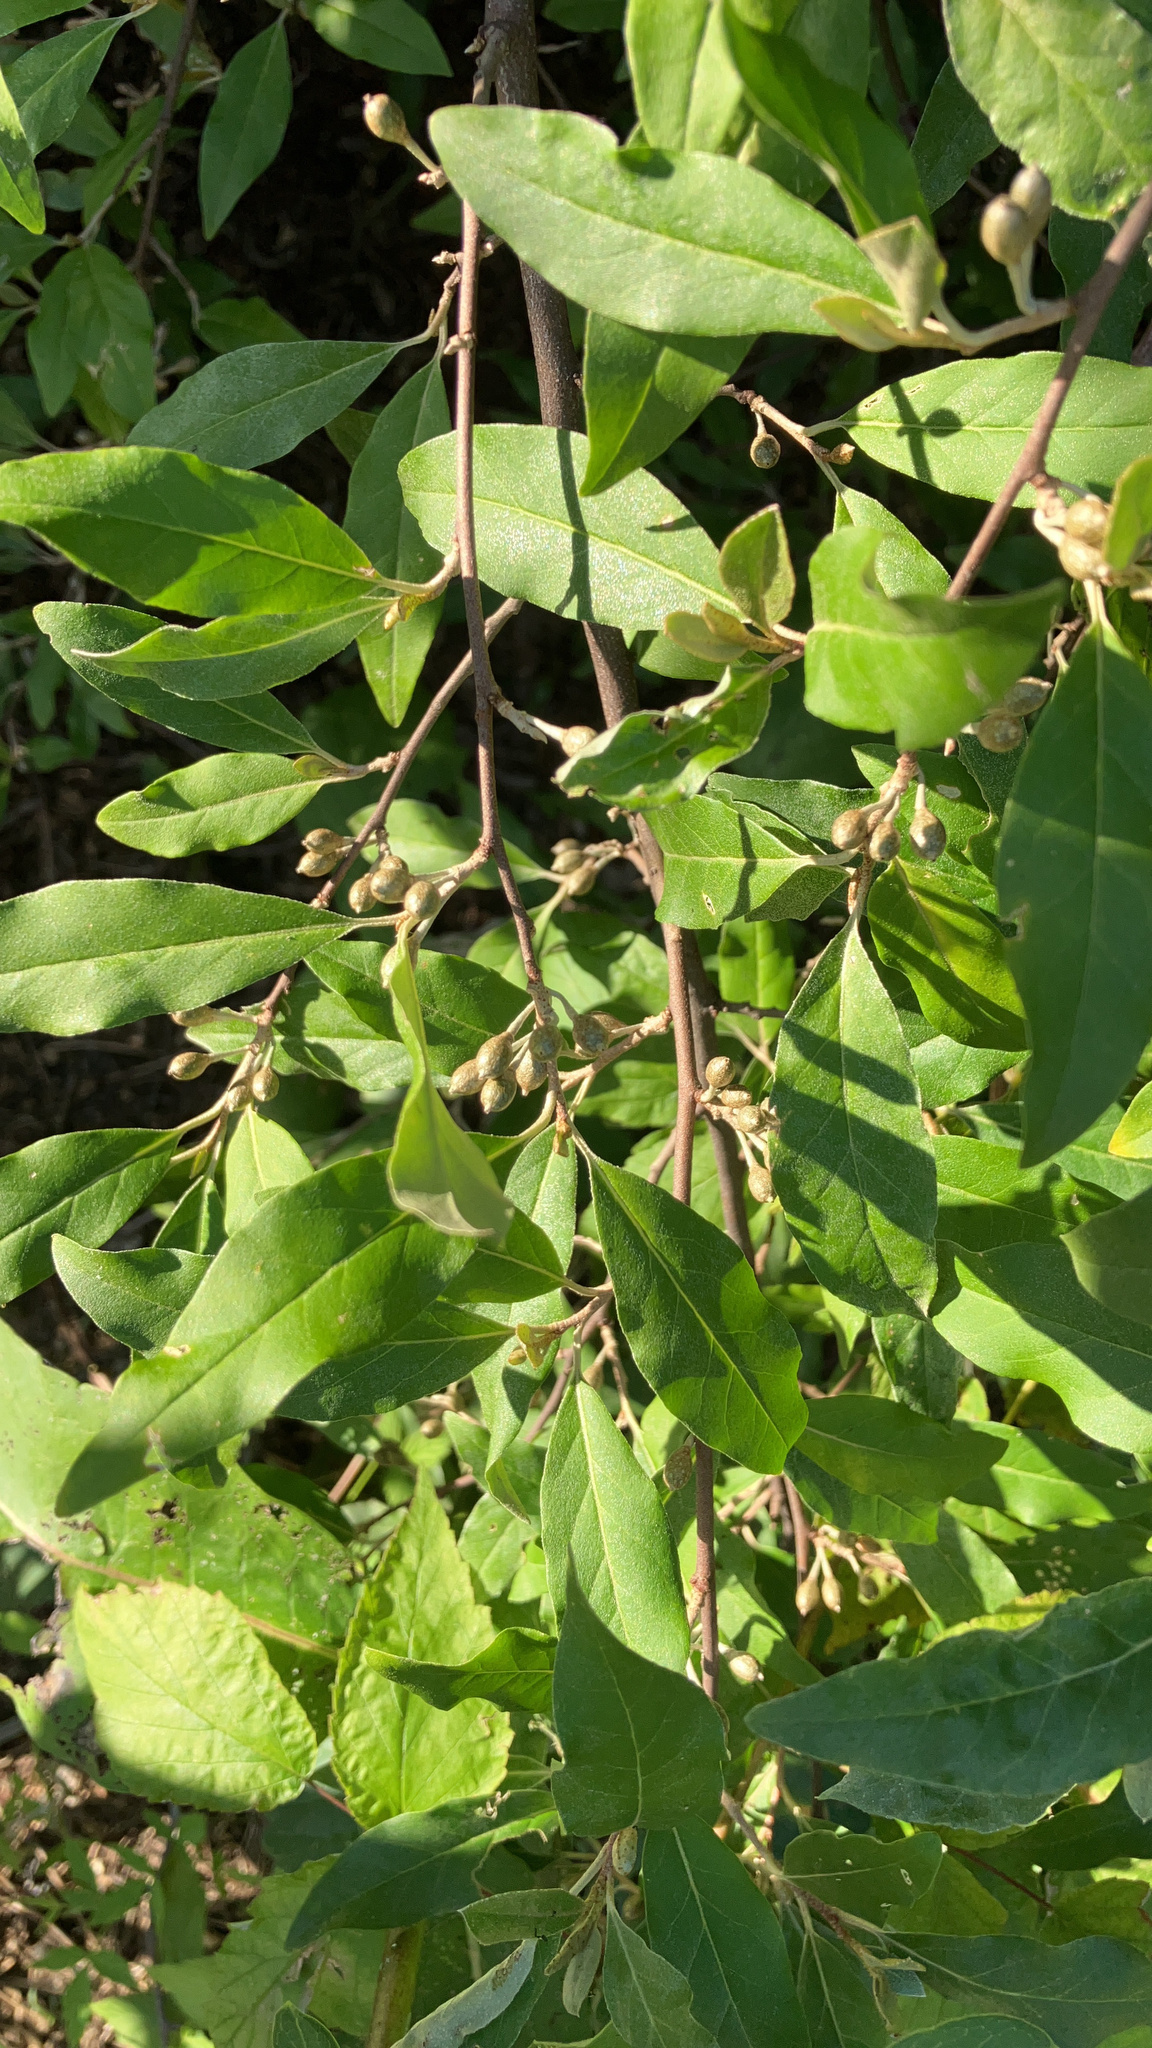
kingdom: Plantae
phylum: Tracheophyta
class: Magnoliopsida
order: Rosales
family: Elaeagnaceae
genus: Elaeagnus
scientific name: Elaeagnus umbellata
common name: Autumn olive
